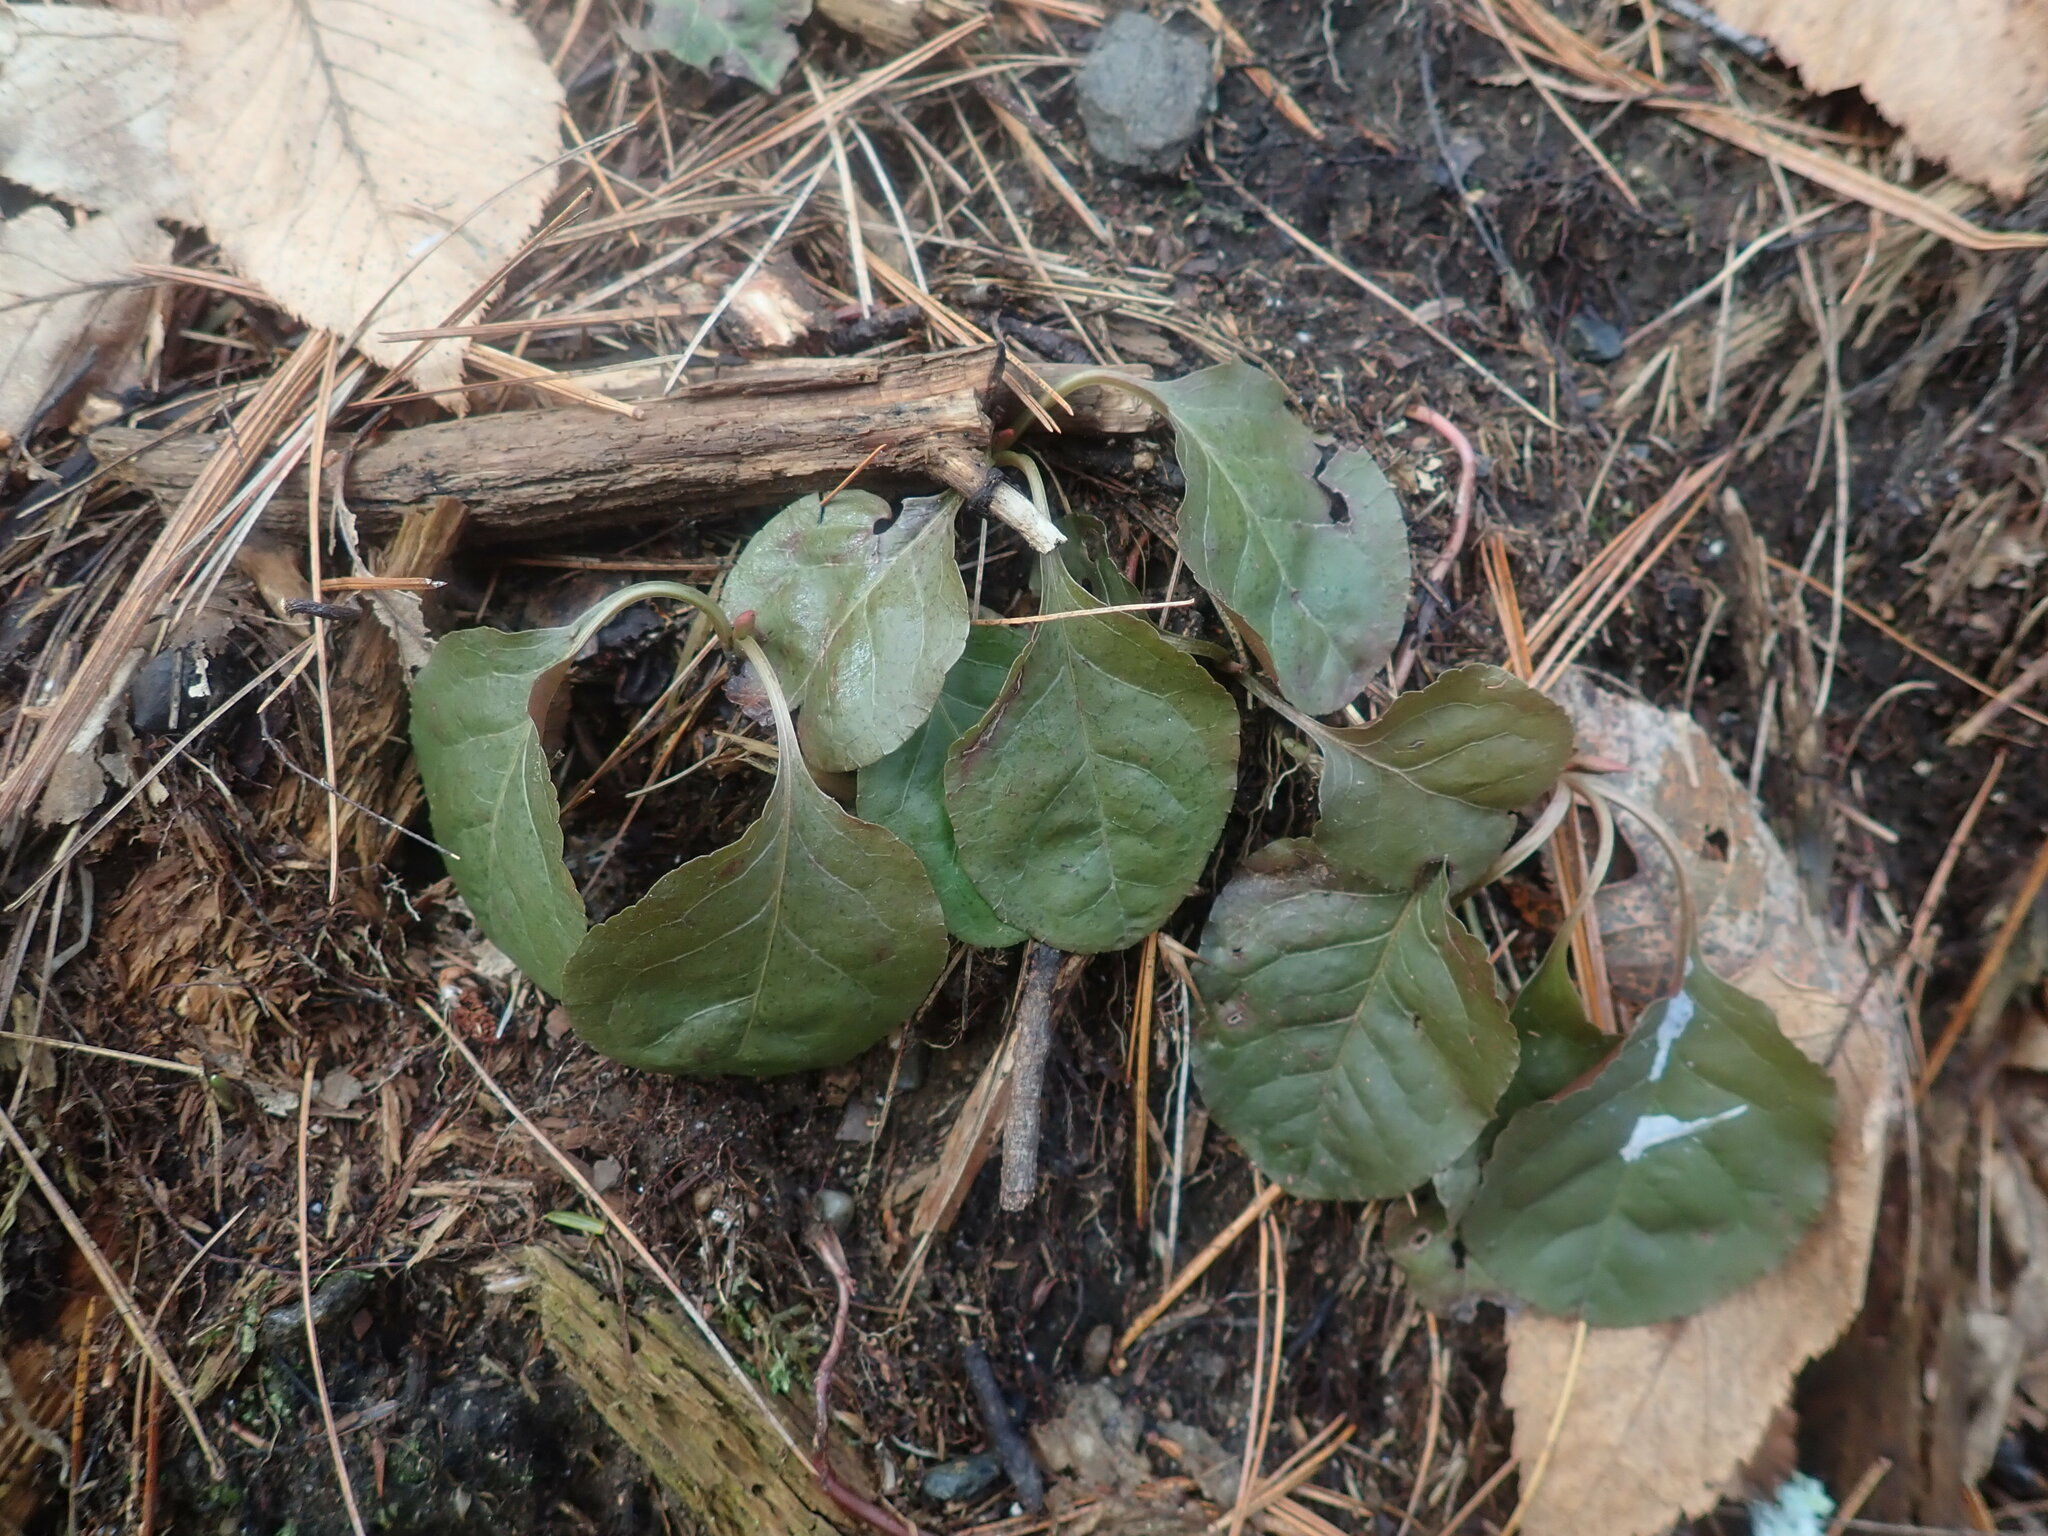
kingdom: Plantae
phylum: Tracheophyta
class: Magnoliopsida
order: Ericales
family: Ericaceae
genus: Pyrola
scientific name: Pyrola elliptica
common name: Shinleaf
